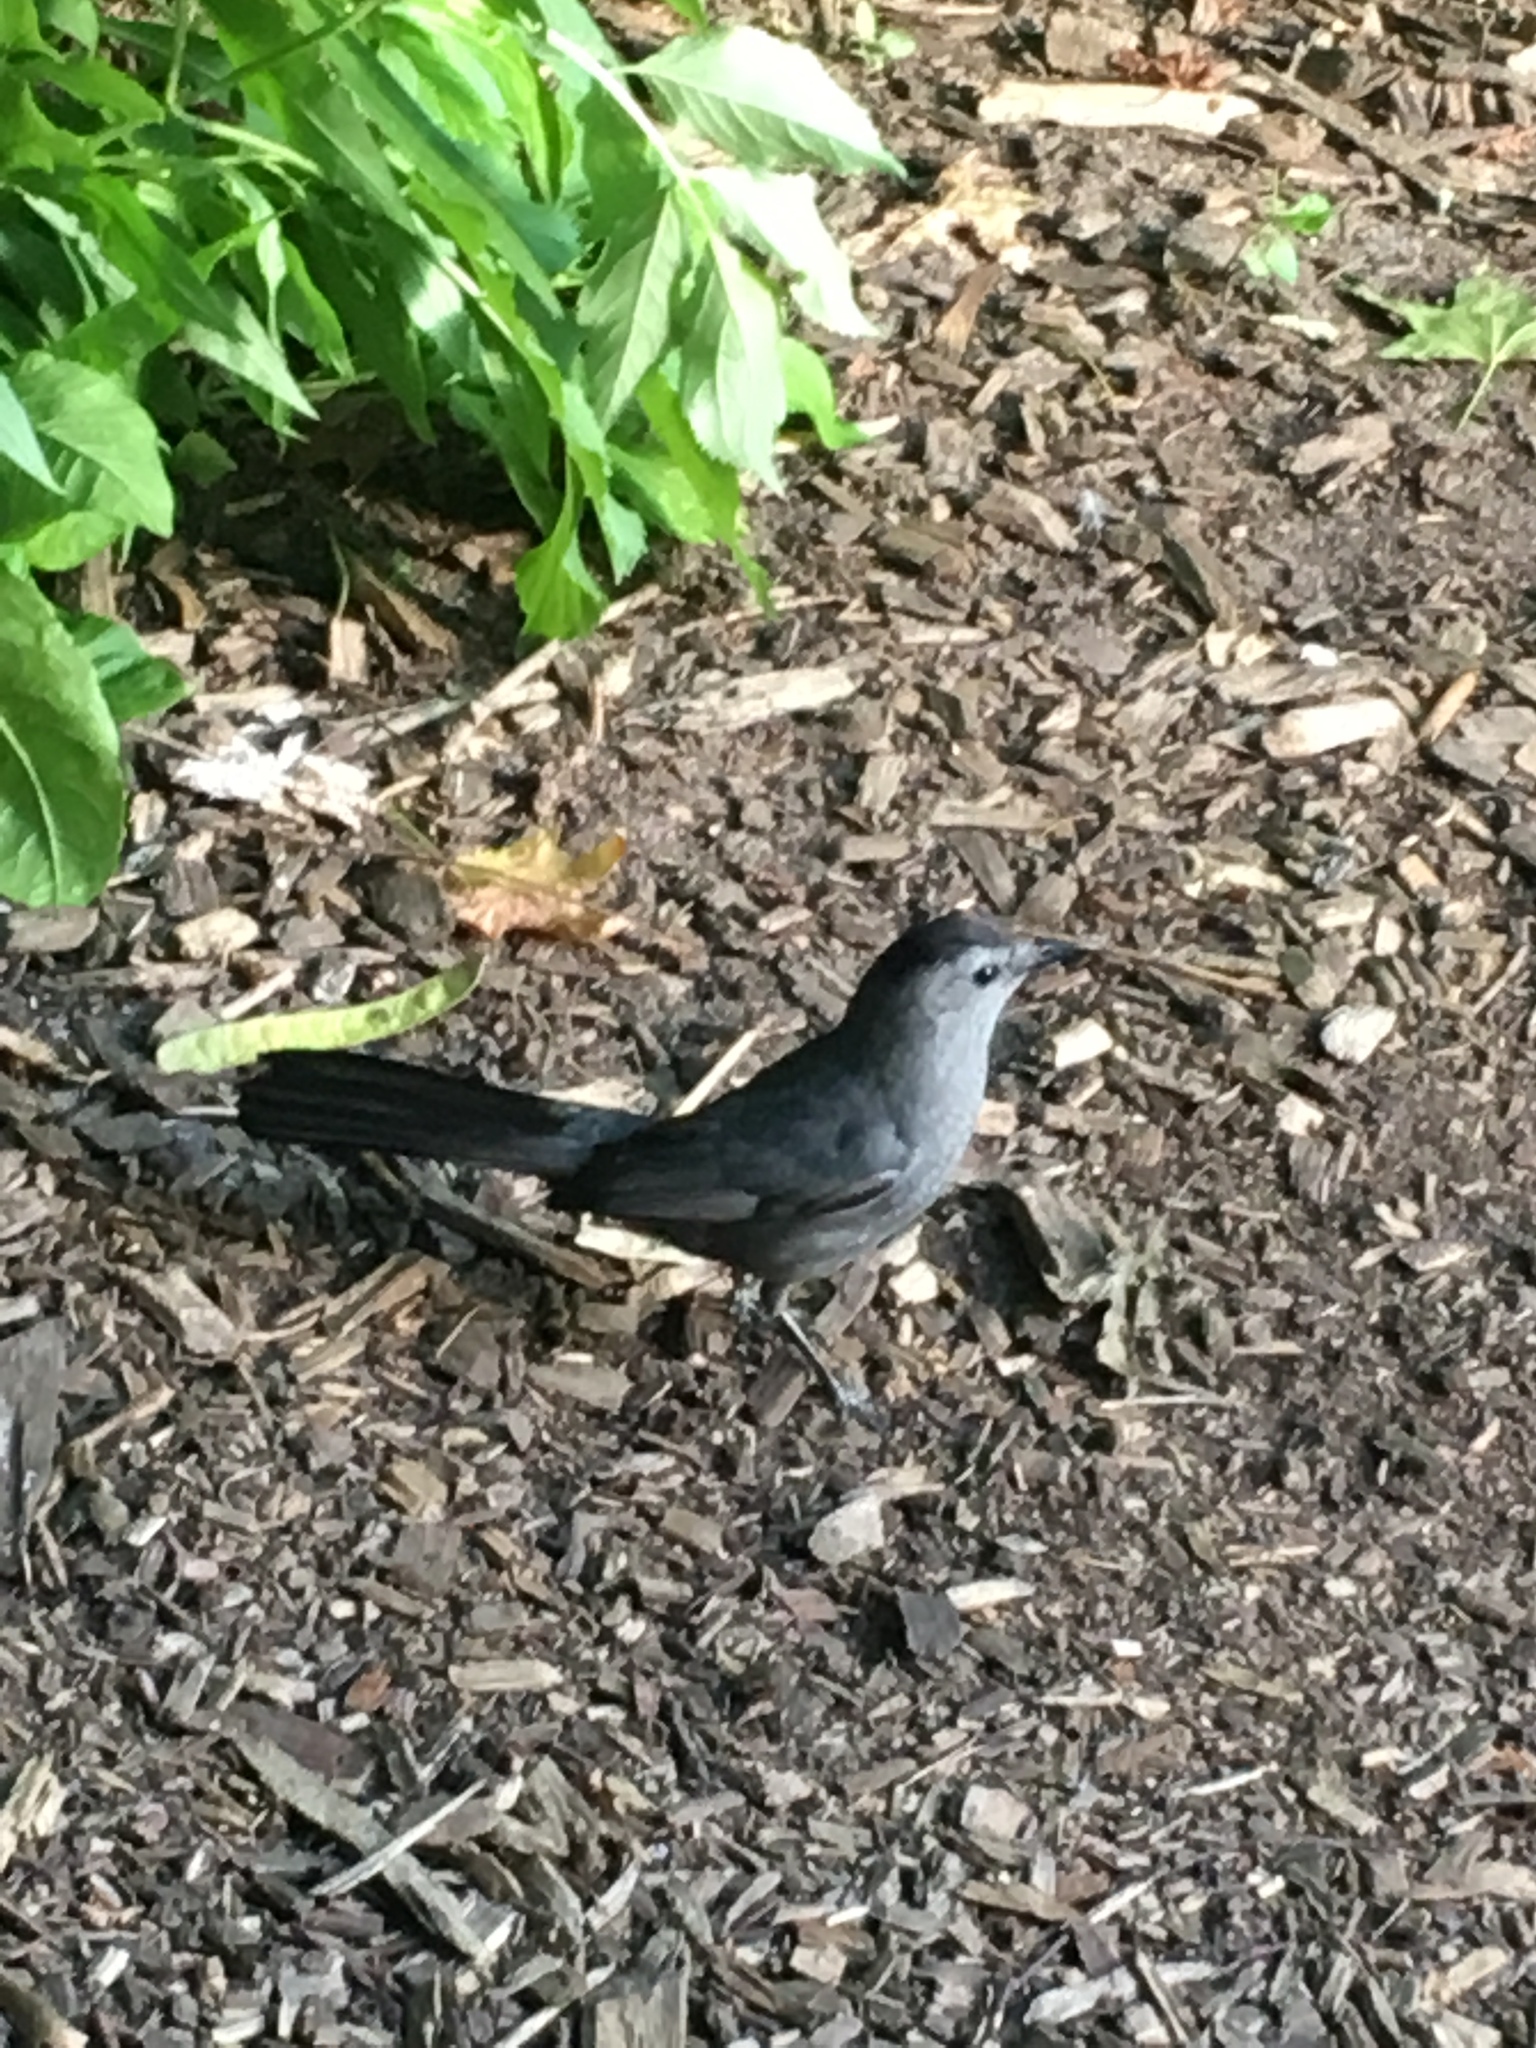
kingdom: Animalia
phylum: Chordata
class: Aves
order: Passeriformes
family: Mimidae
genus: Dumetella
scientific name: Dumetella carolinensis
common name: Gray catbird
